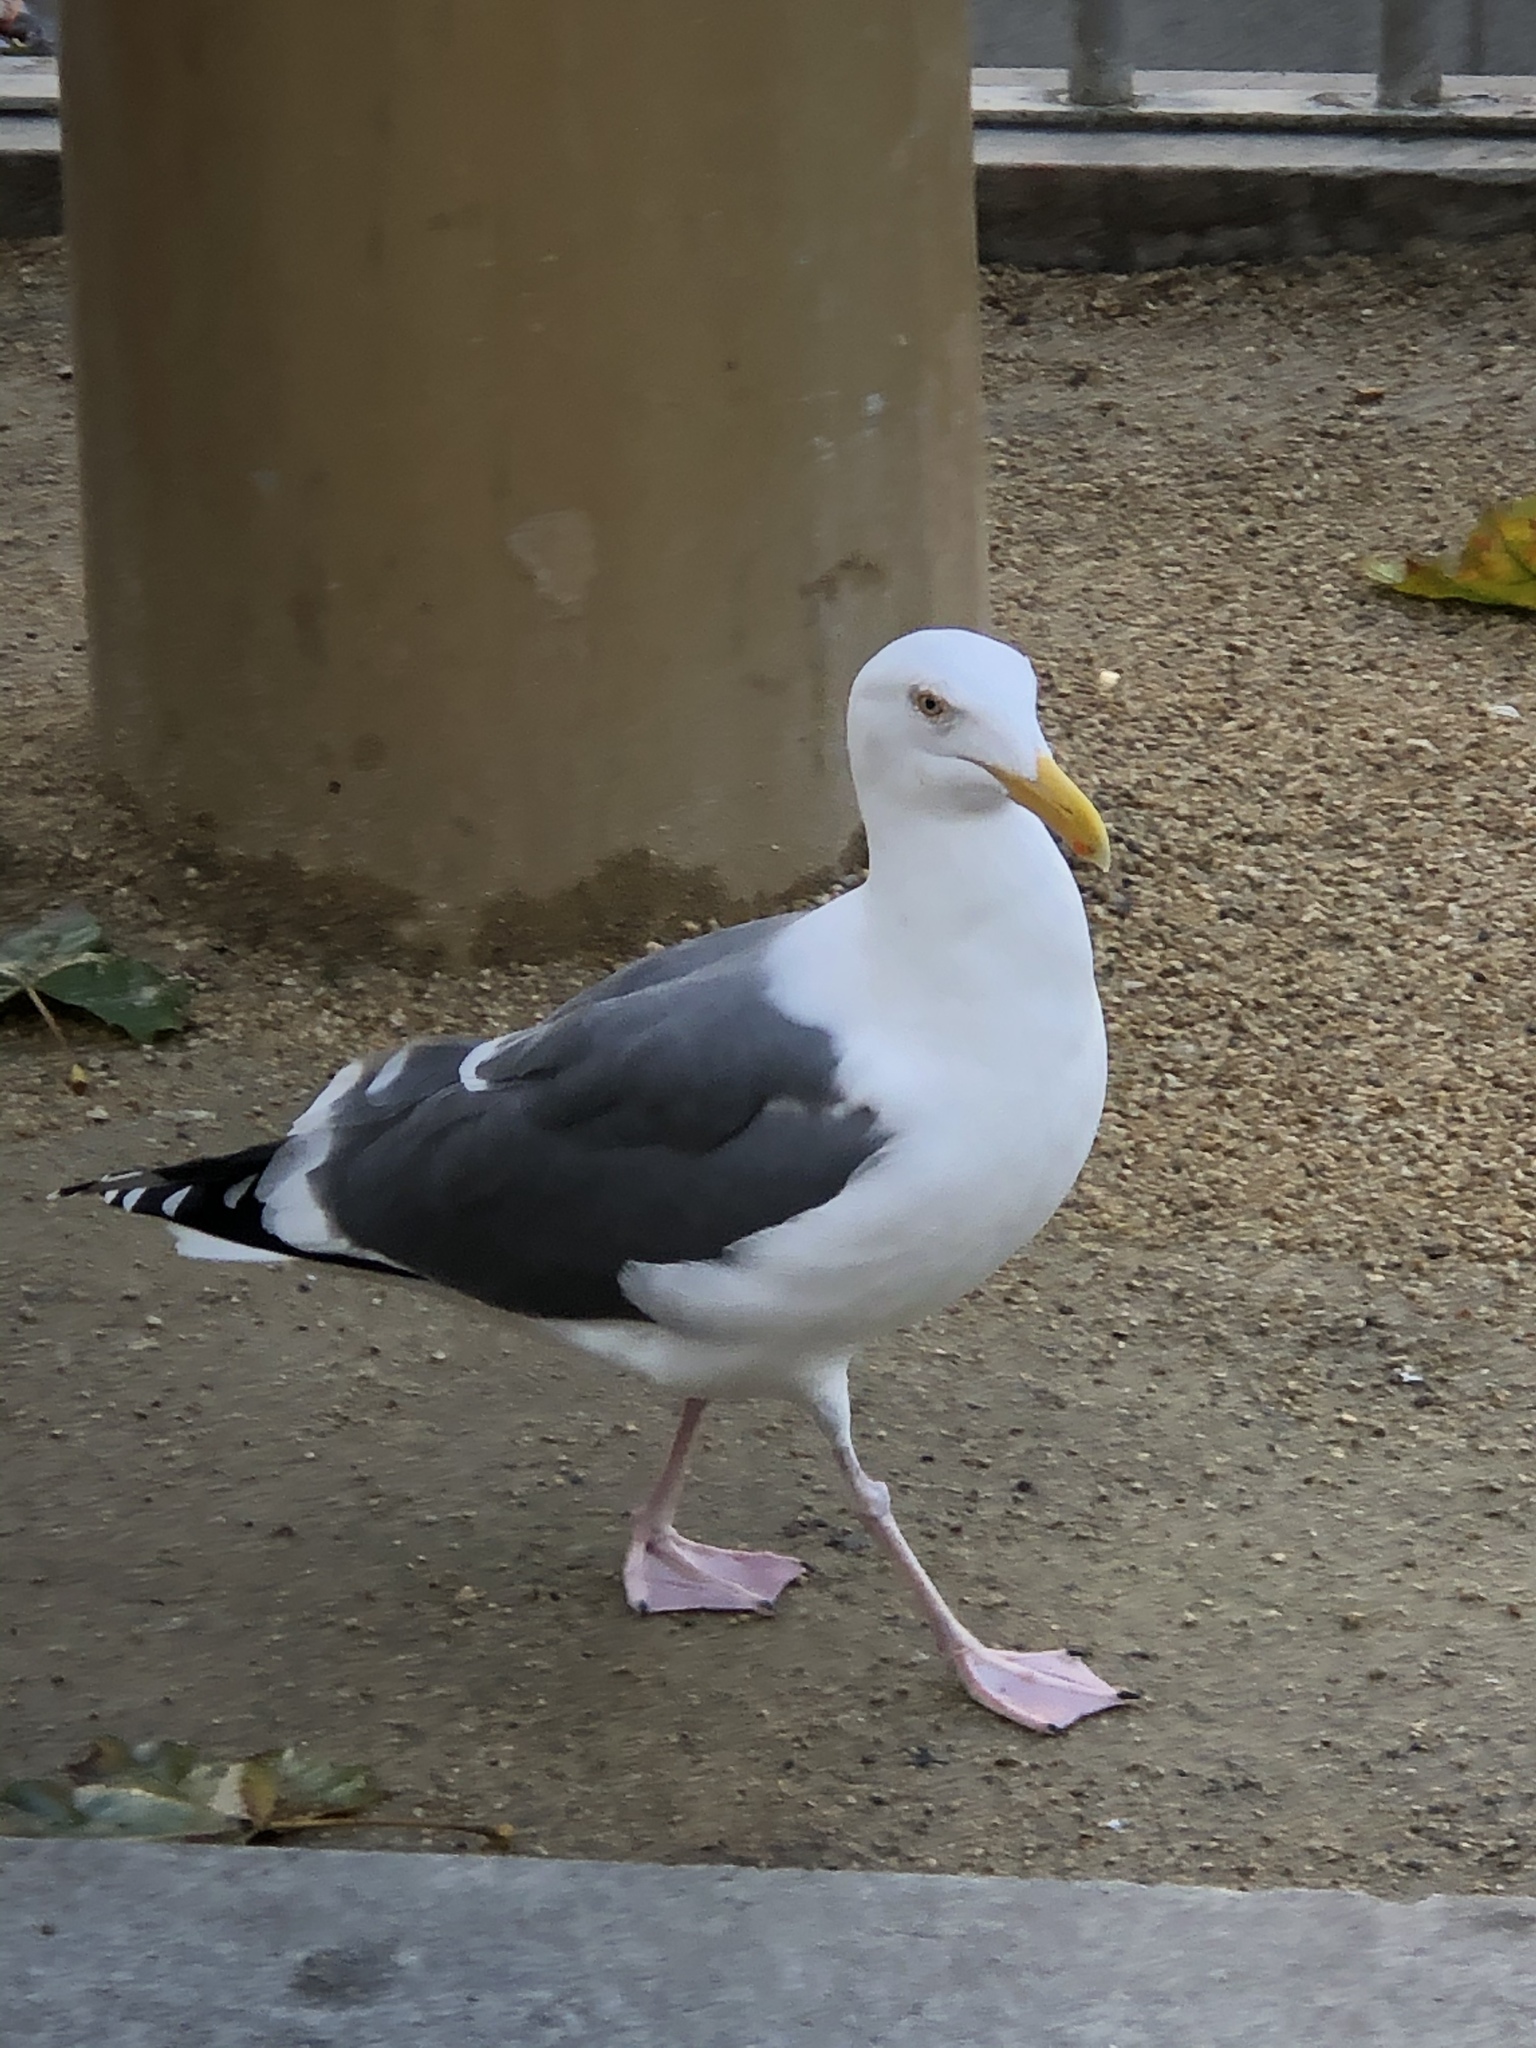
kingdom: Animalia
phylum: Chordata
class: Aves
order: Charadriiformes
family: Laridae
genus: Larus
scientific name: Larus occidentalis
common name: Western gull
